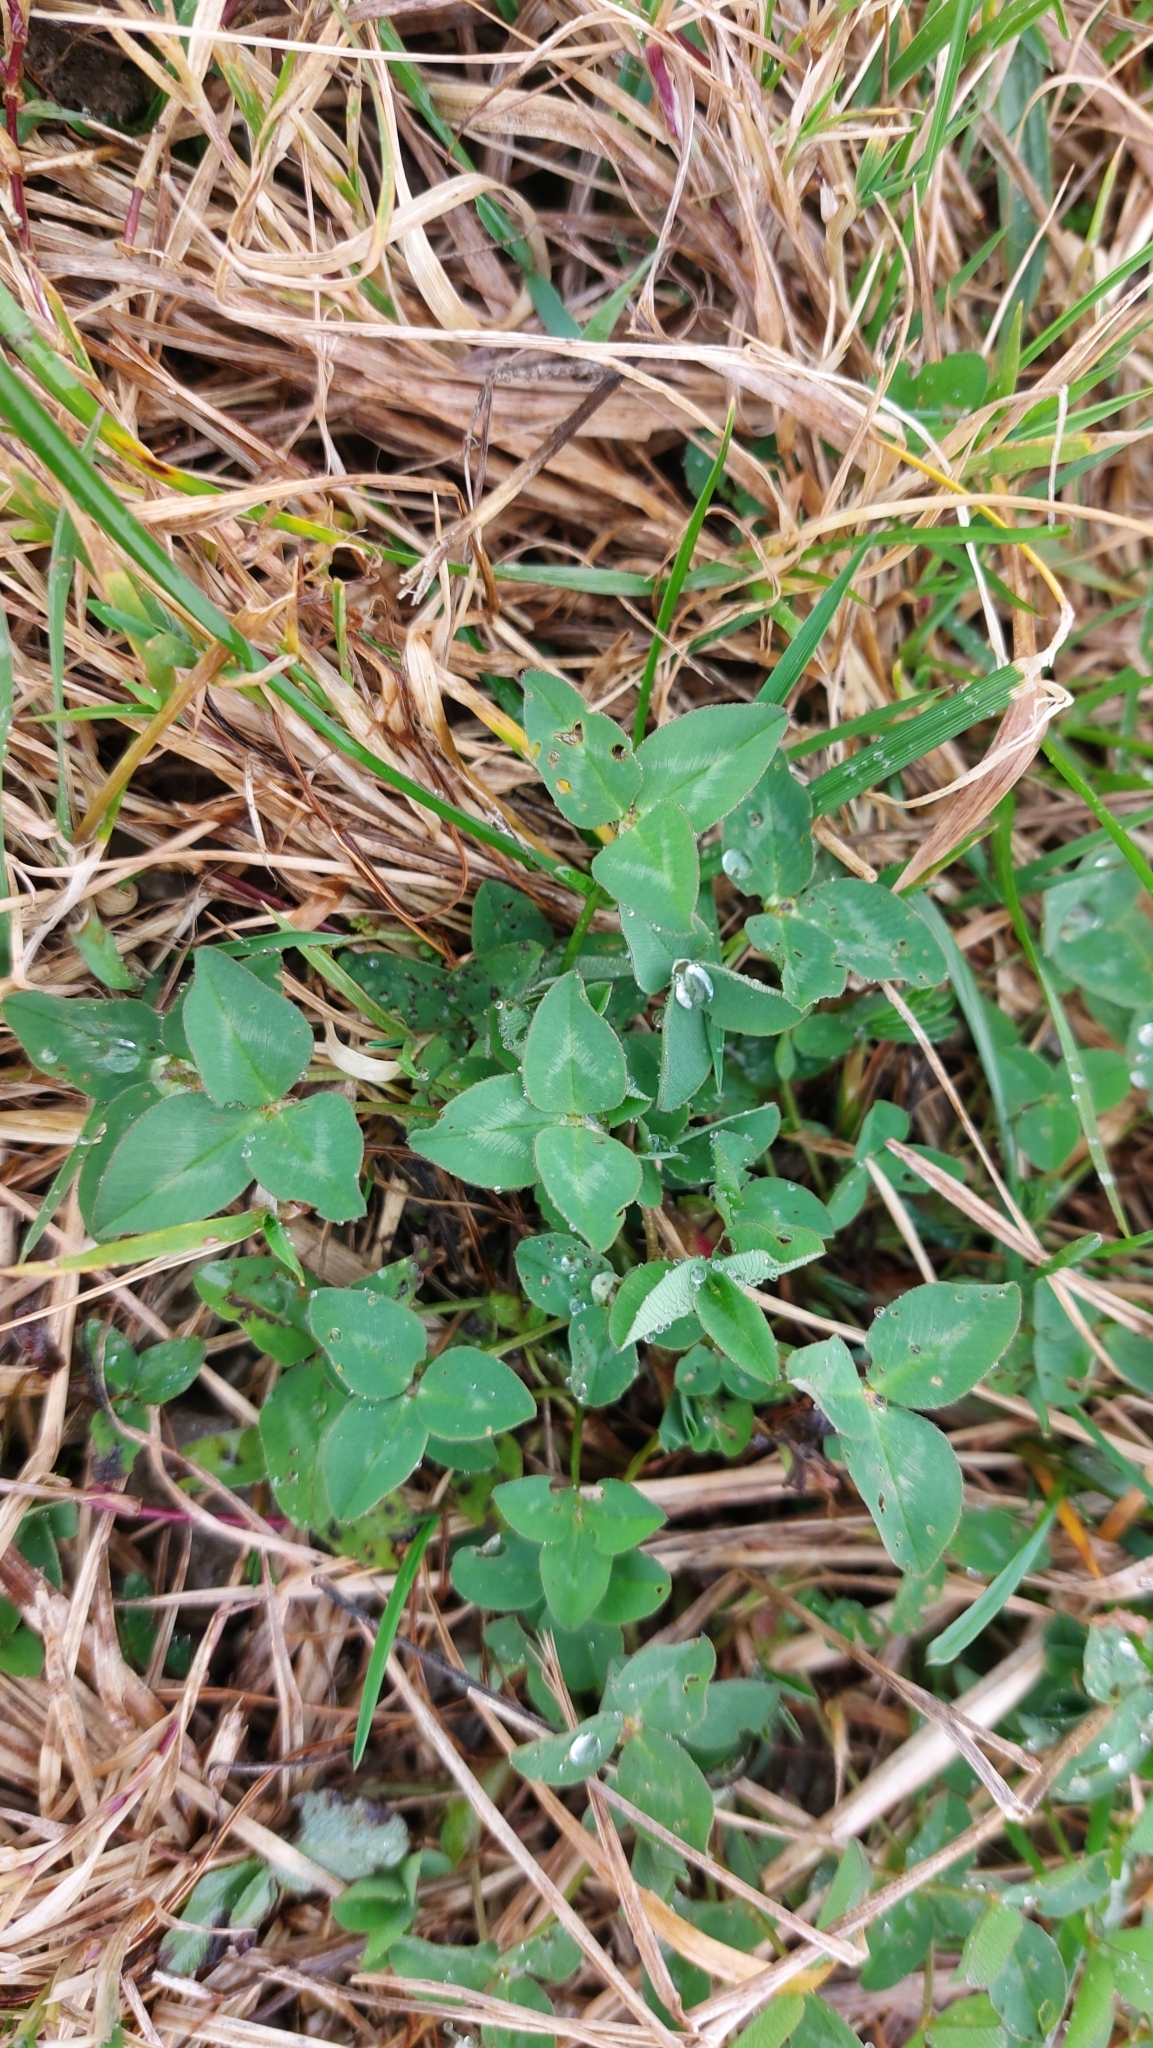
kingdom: Plantae
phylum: Tracheophyta
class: Magnoliopsida
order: Fabales
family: Fabaceae
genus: Trifolium
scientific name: Trifolium pratense
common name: Red clover
